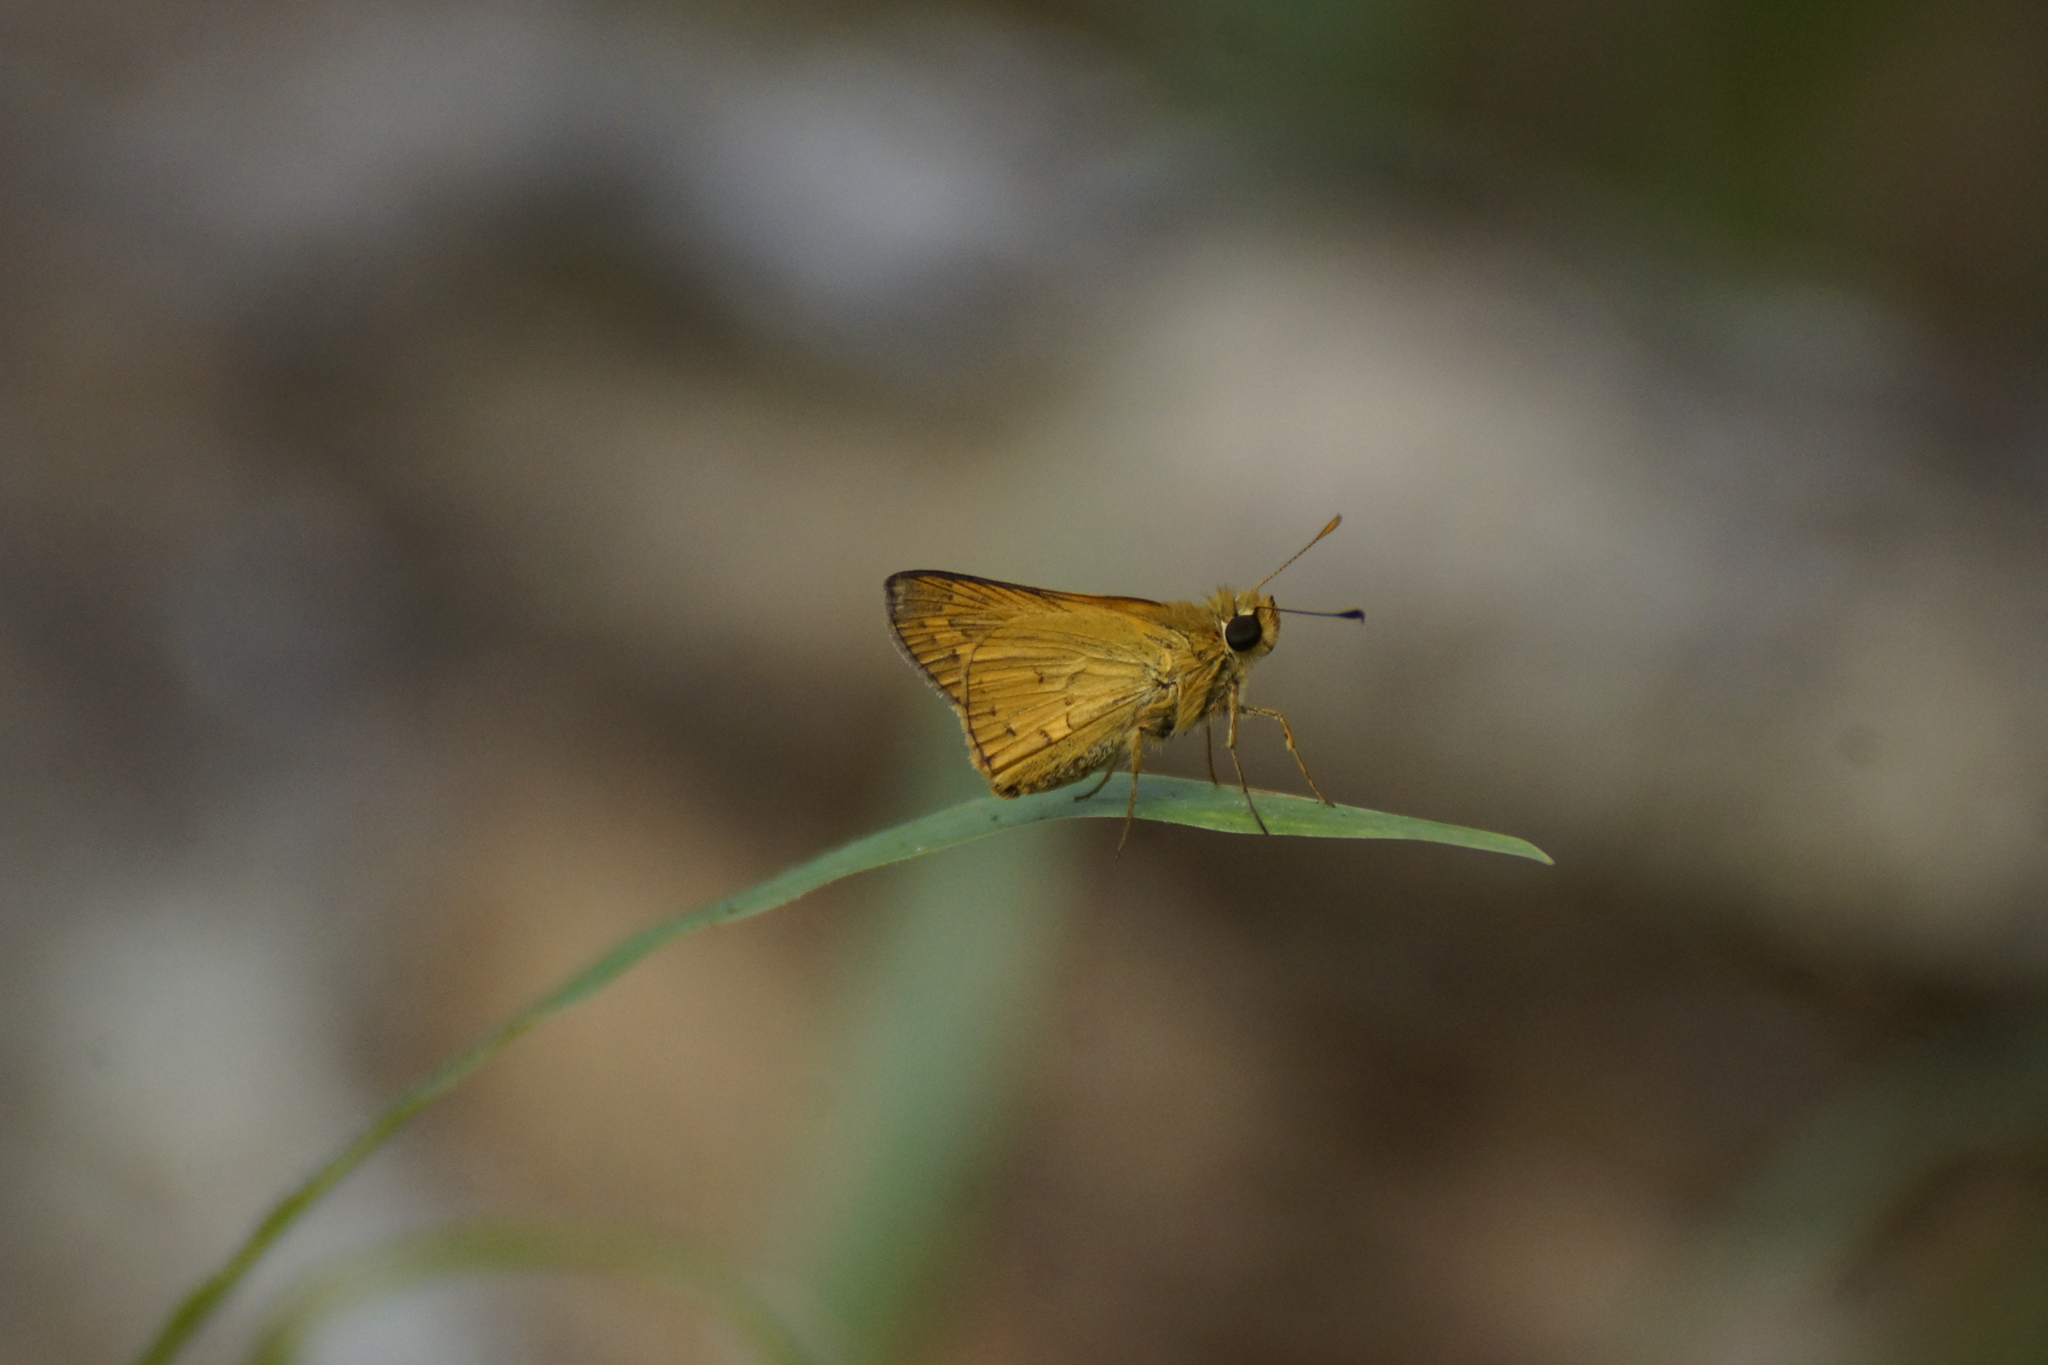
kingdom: Animalia
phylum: Arthropoda
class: Insecta
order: Lepidoptera
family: Hesperiidae
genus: Telicota
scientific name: Telicota colon
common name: Pale palm dart
